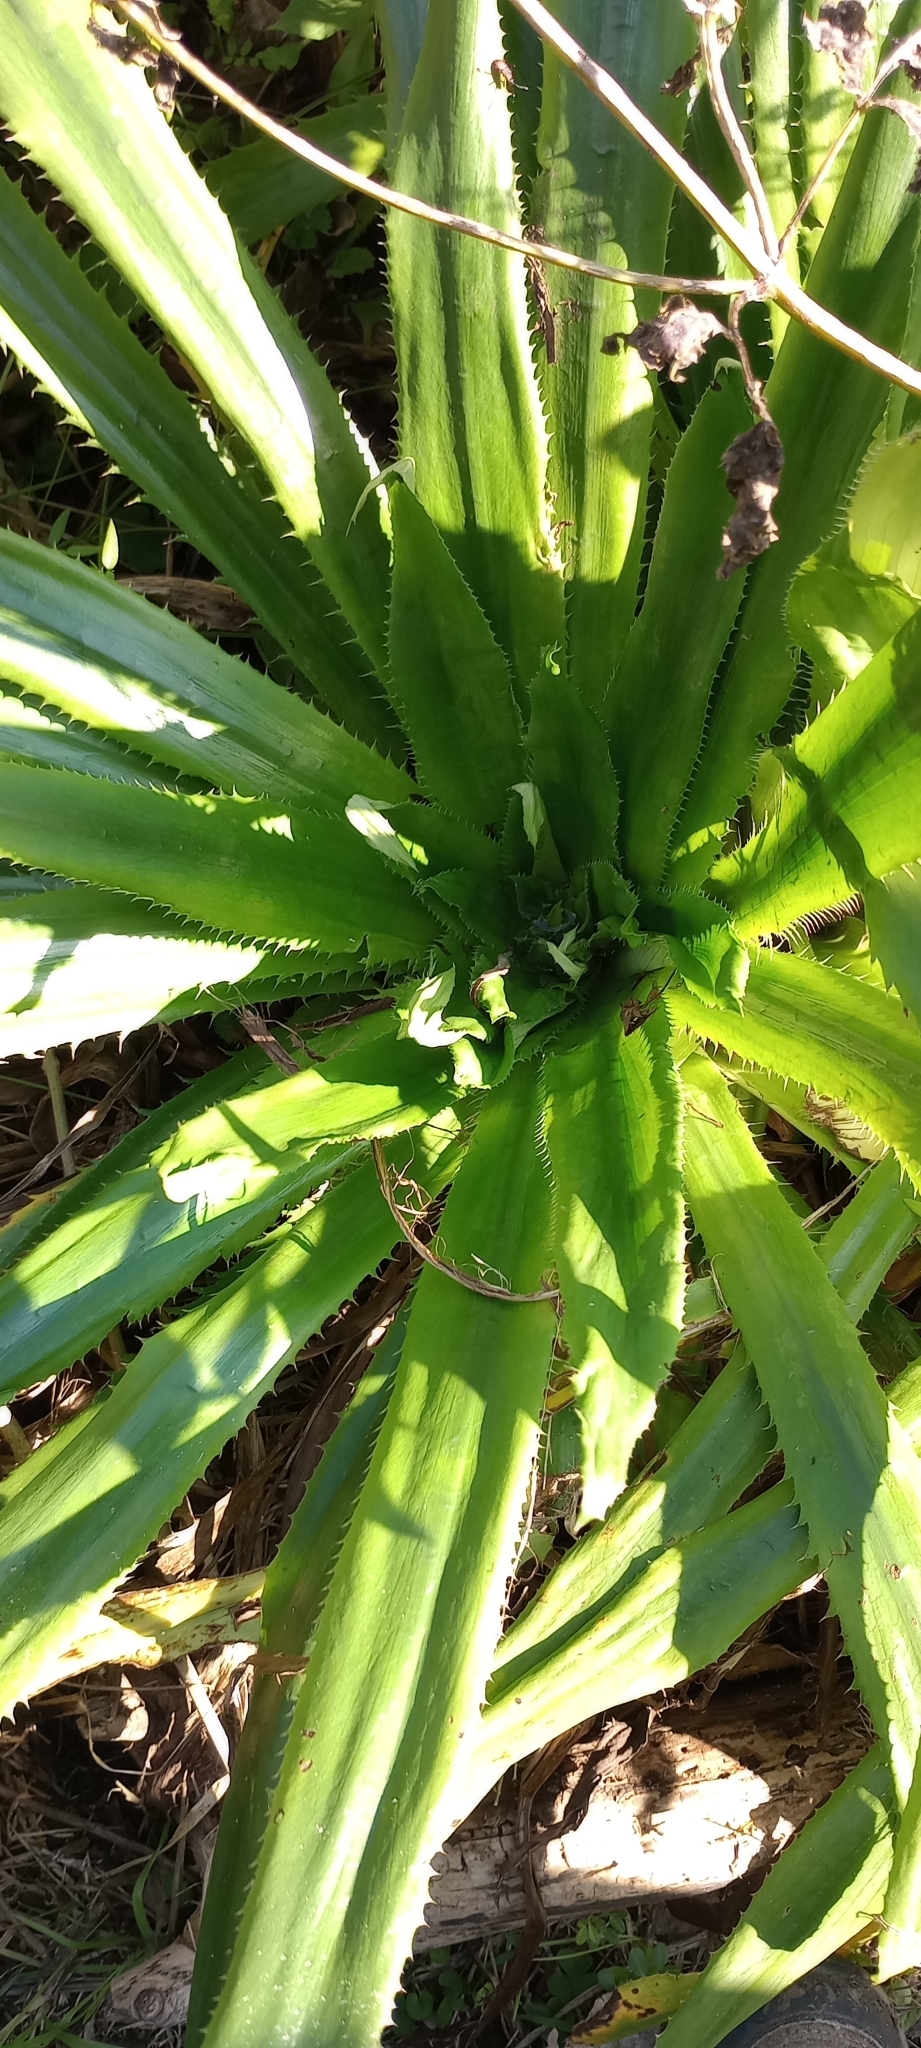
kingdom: Plantae
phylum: Tracheophyta
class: Magnoliopsida
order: Apiales
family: Apiaceae
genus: Eryngium
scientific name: Eryngium elegans
